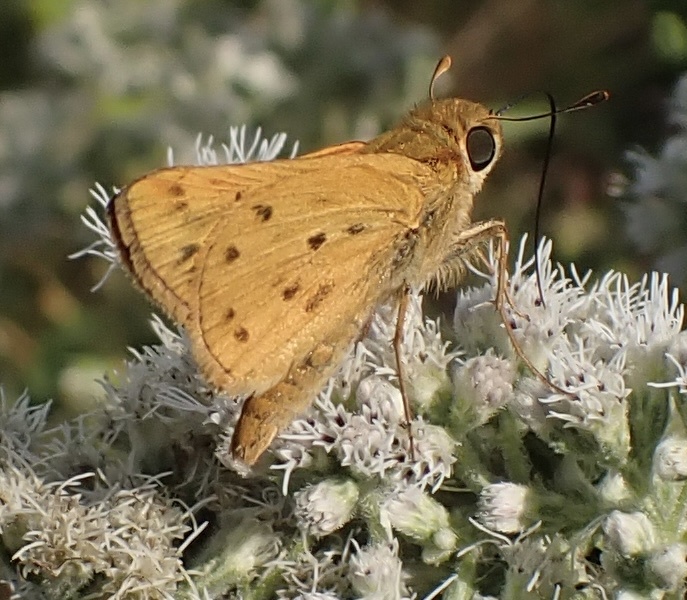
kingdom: Animalia
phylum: Arthropoda
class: Insecta
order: Lepidoptera
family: Hesperiidae
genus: Hylephila
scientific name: Hylephila phyleus
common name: Fiery skipper
